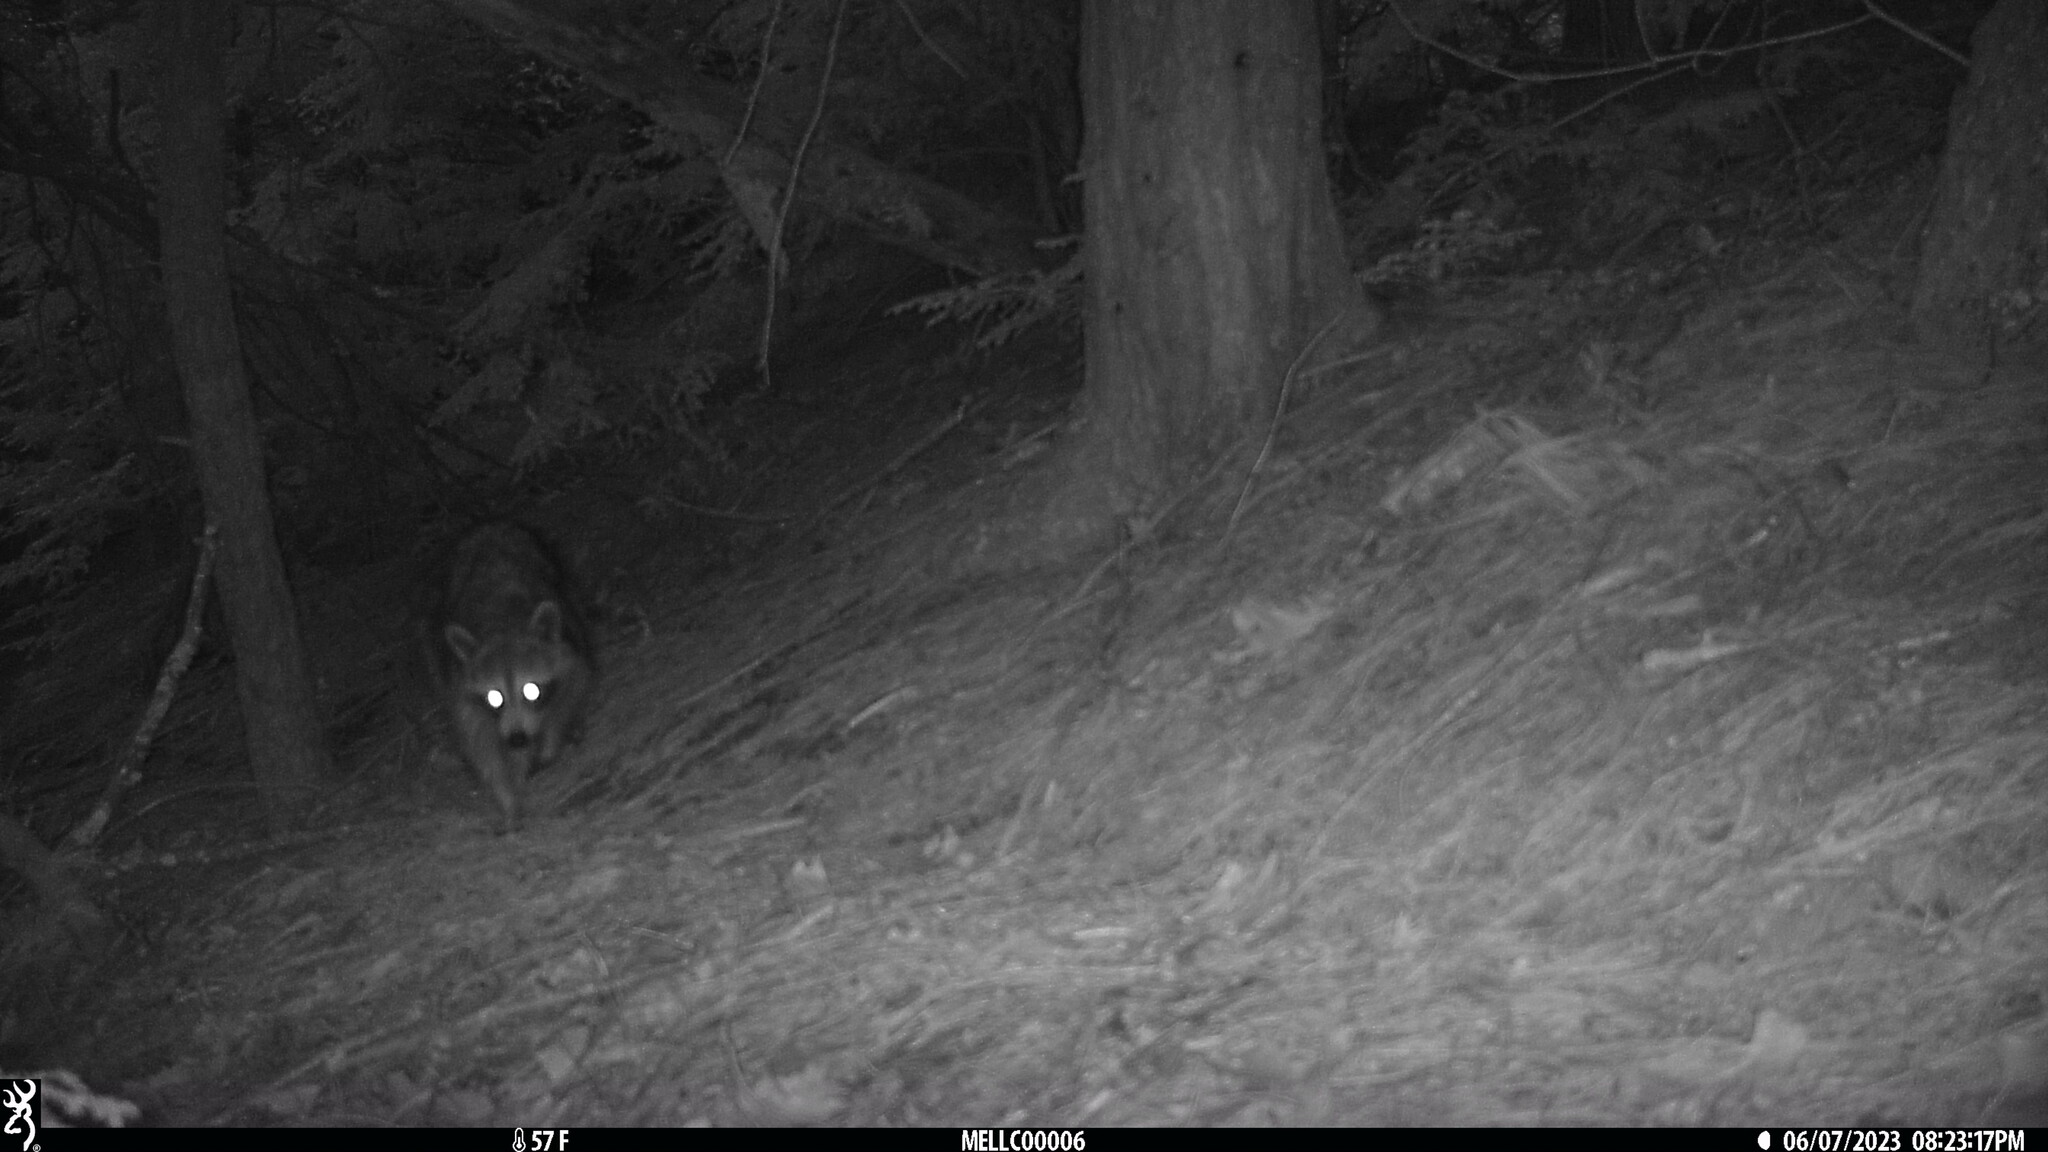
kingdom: Animalia
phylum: Chordata
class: Mammalia
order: Carnivora
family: Procyonidae
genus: Procyon
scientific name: Procyon lotor
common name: Raccoon
